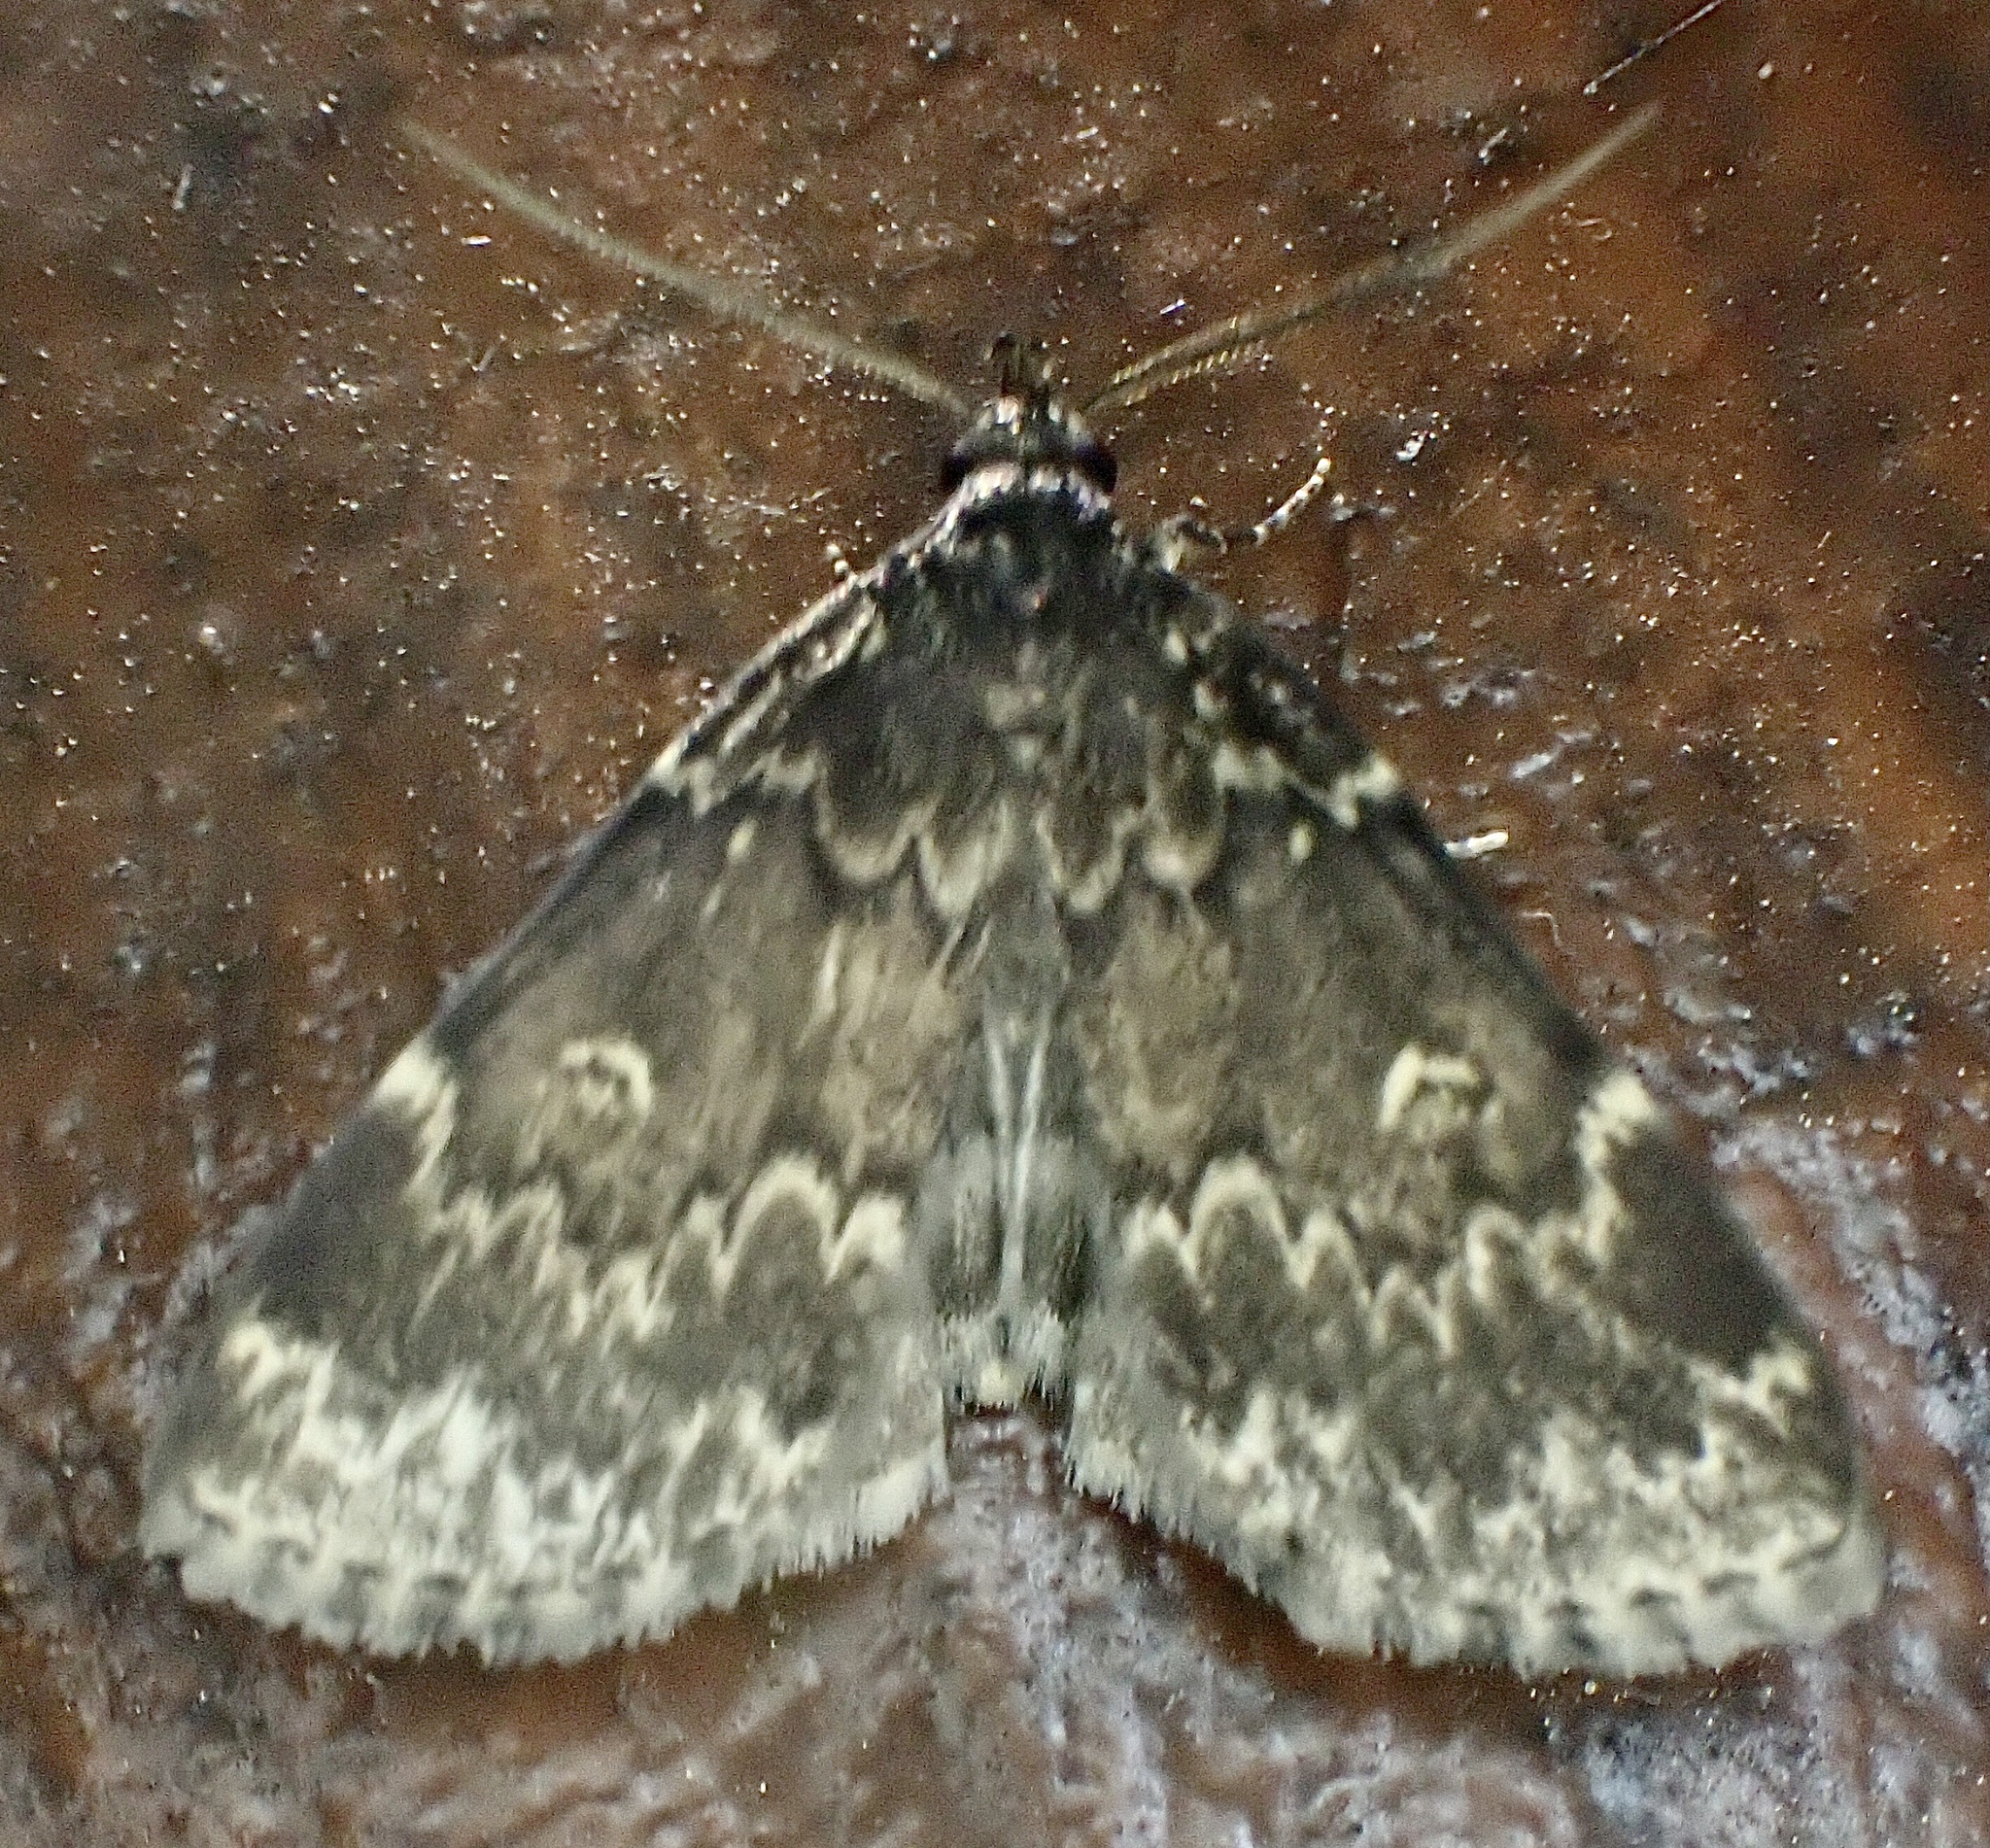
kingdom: Animalia
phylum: Arthropoda
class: Insecta
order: Lepidoptera
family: Erebidae
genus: Idia
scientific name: Idia lubricalis
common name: Twin-striped tabby
